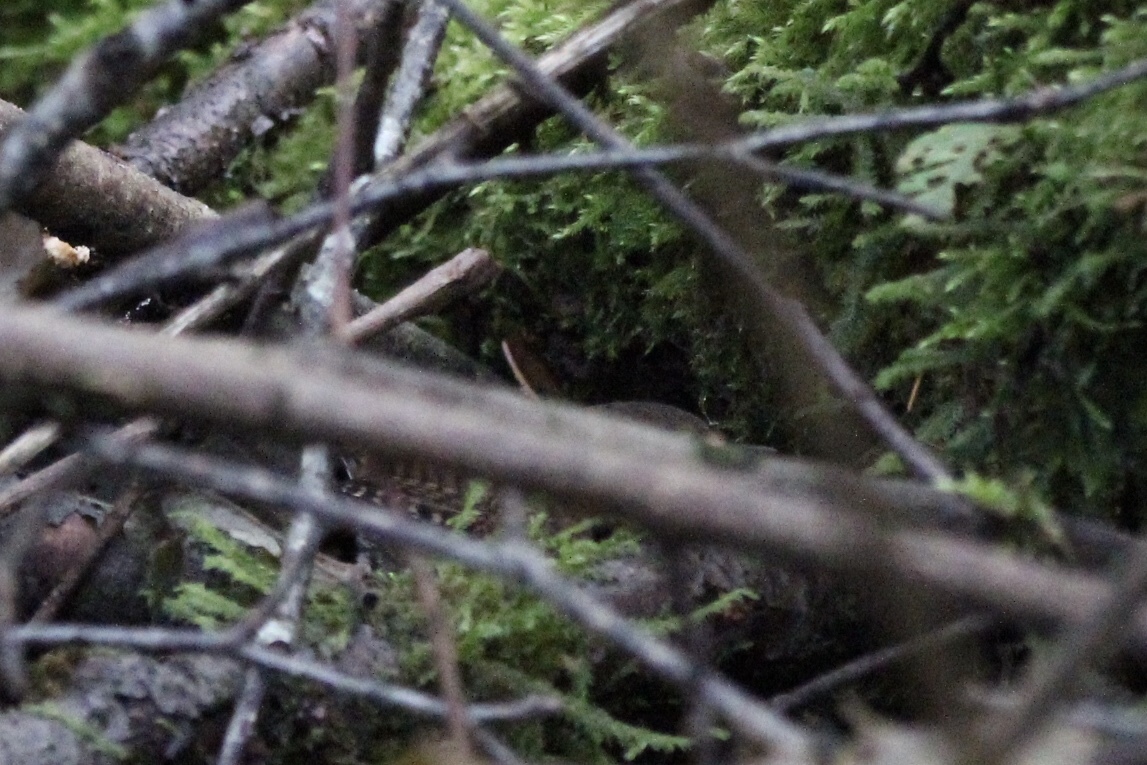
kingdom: Animalia
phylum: Chordata
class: Aves
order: Passeriformes
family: Troglodytidae
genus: Troglodytes
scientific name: Troglodytes pacificus
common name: Pacific wren
